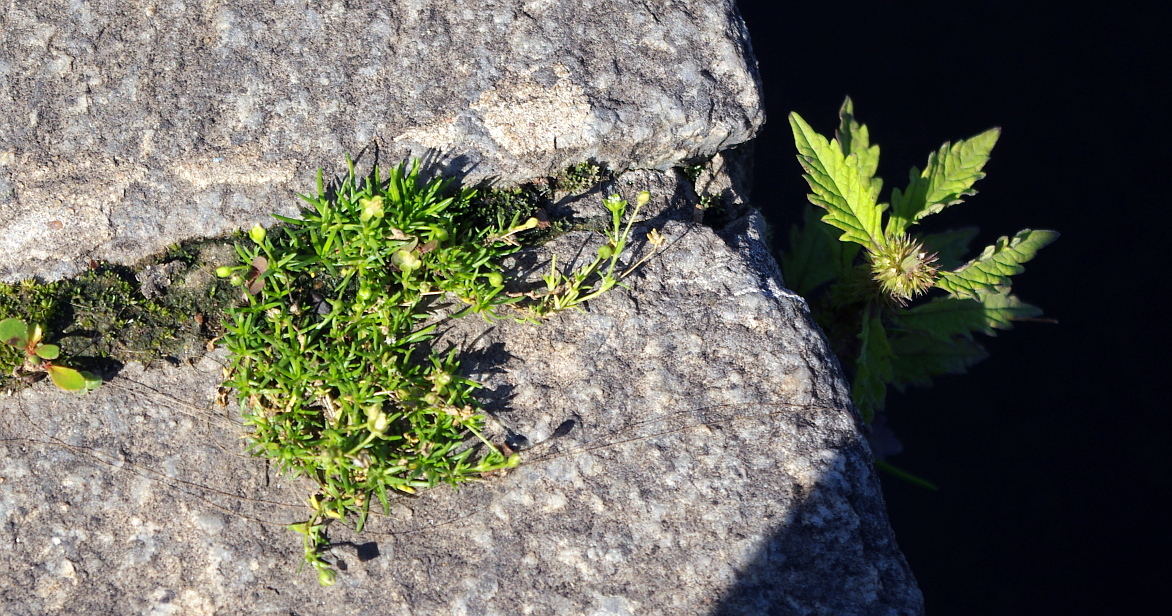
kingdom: Plantae
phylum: Tracheophyta
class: Magnoliopsida
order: Caryophyllales
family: Caryophyllaceae
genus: Sagina
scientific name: Sagina procumbens
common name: Procumbent pearlwort
